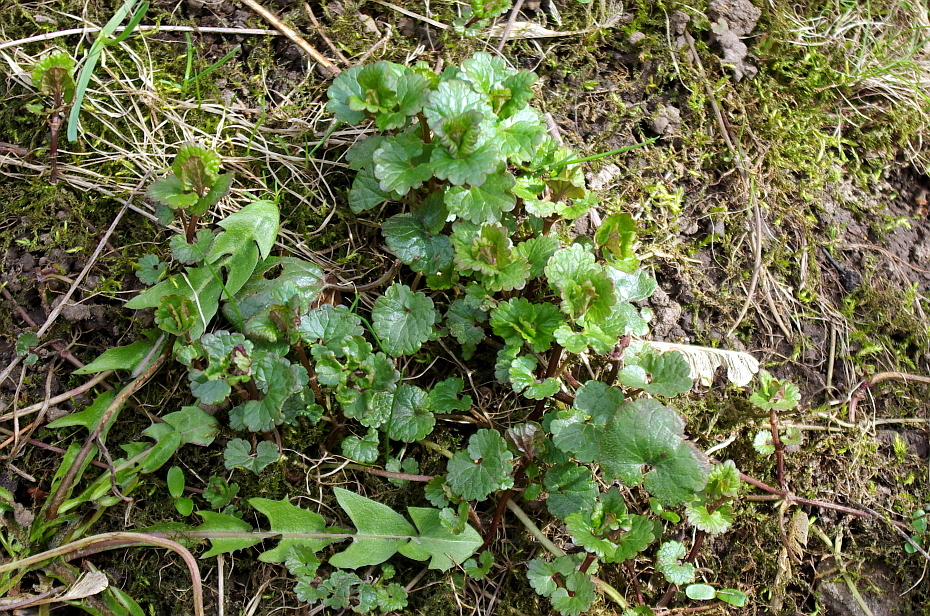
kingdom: Plantae
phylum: Tracheophyta
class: Magnoliopsida
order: Lamiales
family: Lamiaceae
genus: Glechoma
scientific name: Glechoma hederacea
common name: Ground ivy
